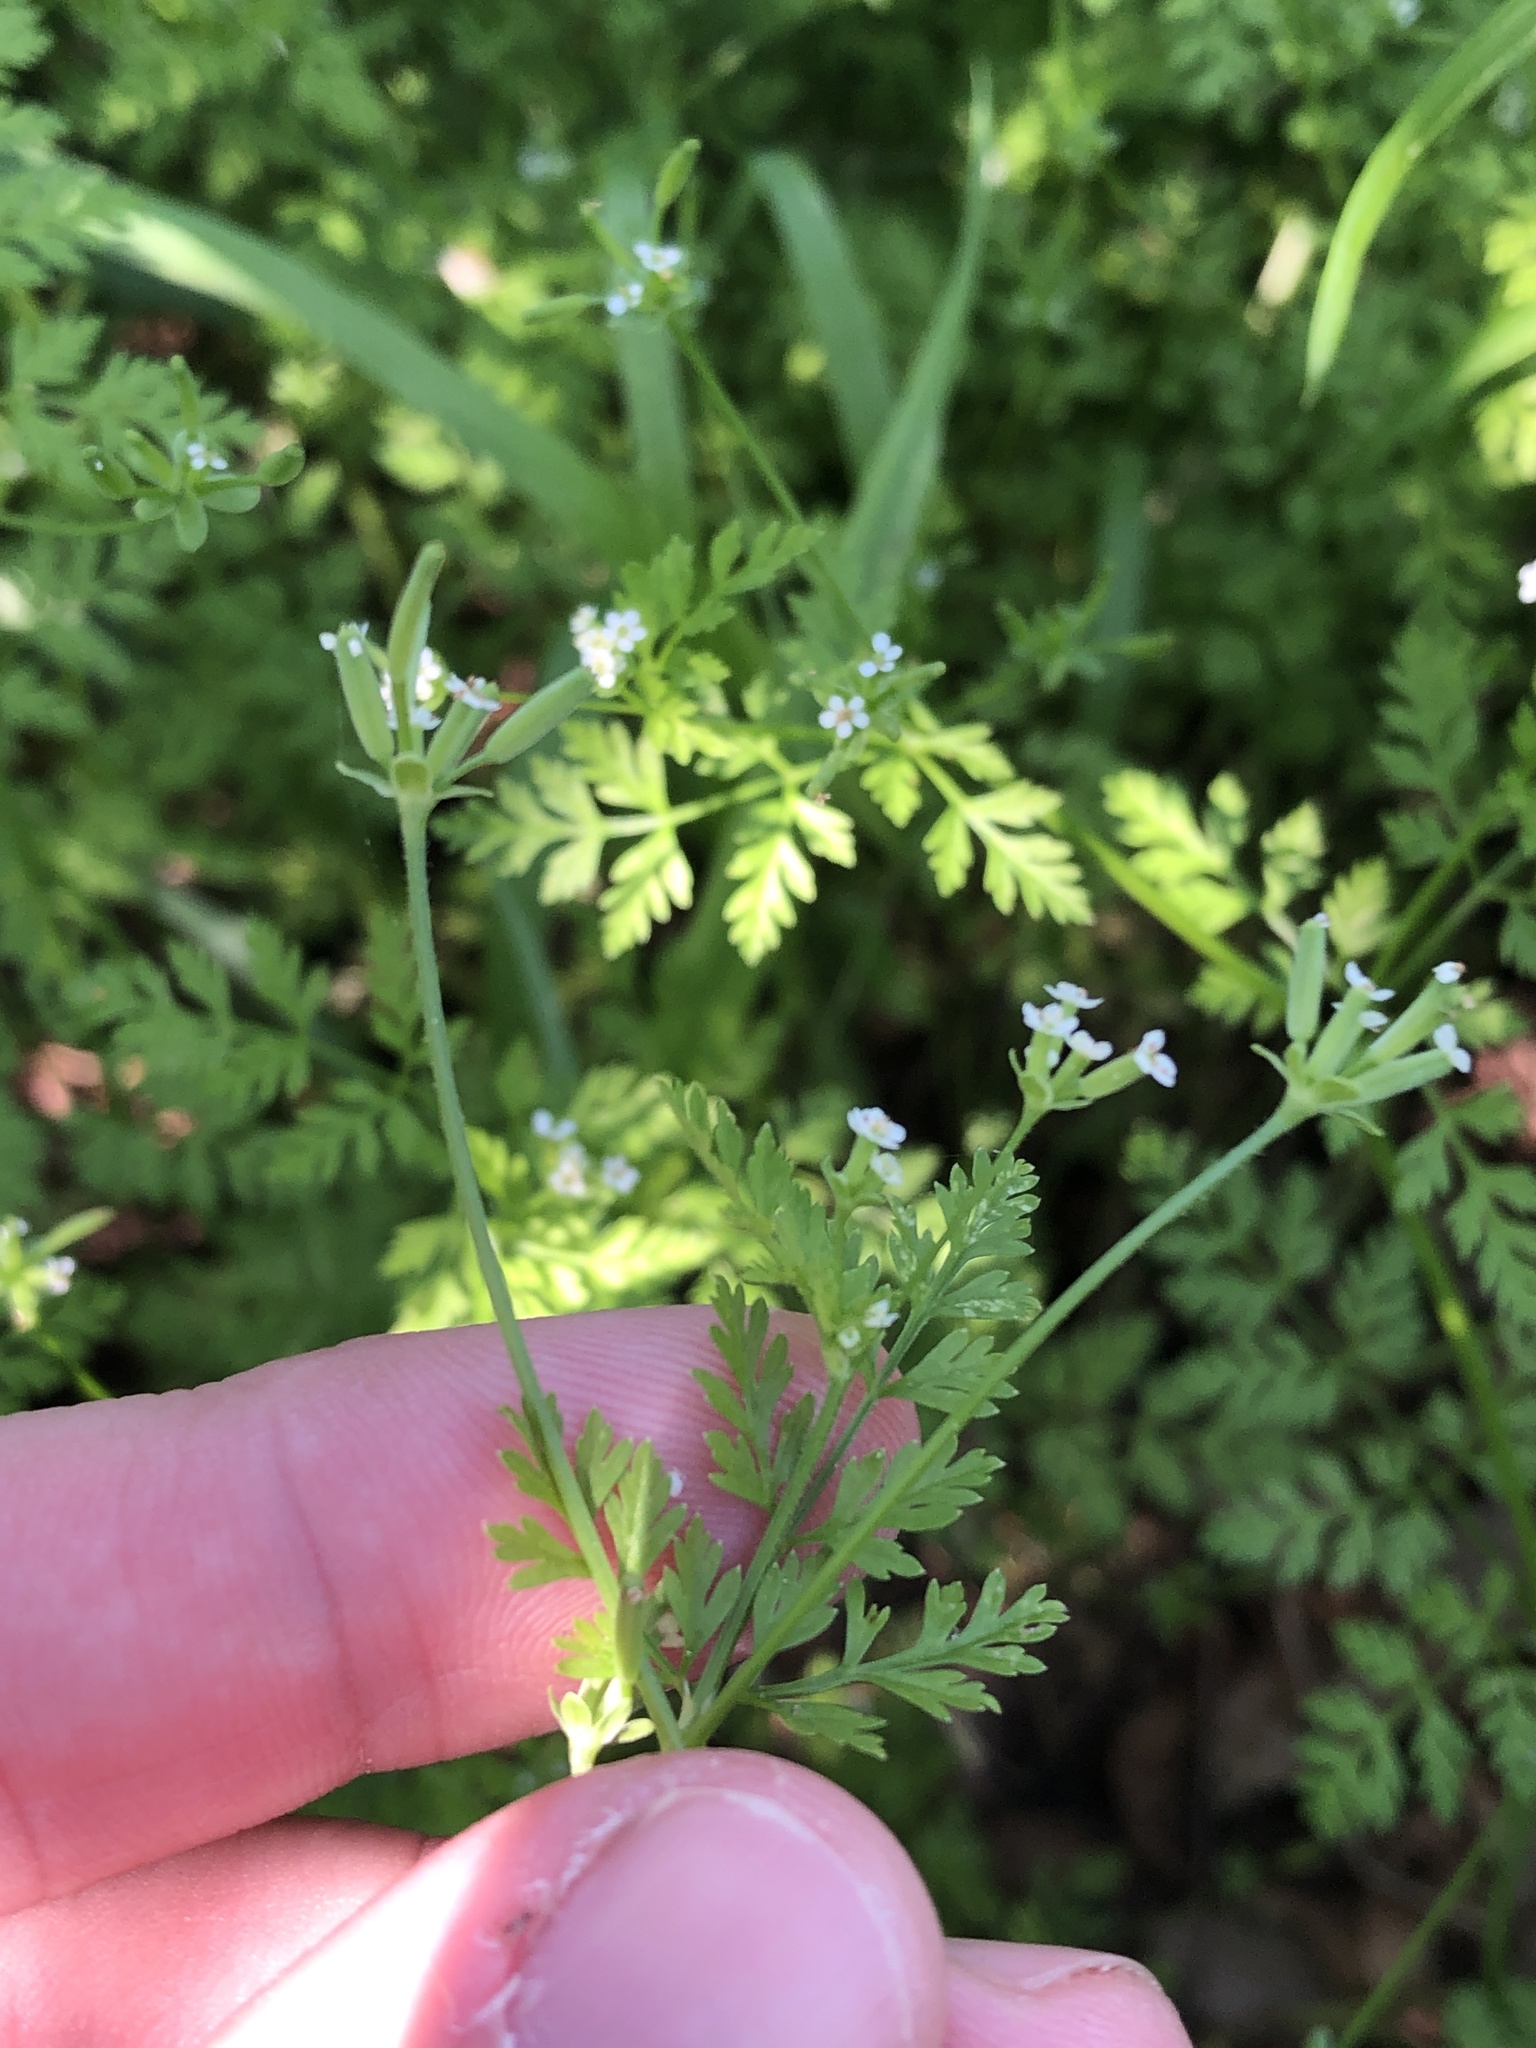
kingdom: Plantae
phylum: Tracheophyta
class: Magnoliopsida
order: Apiales
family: Apiaceae
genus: Chaerophyllum
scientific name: Chaerophyllum tainturieri
